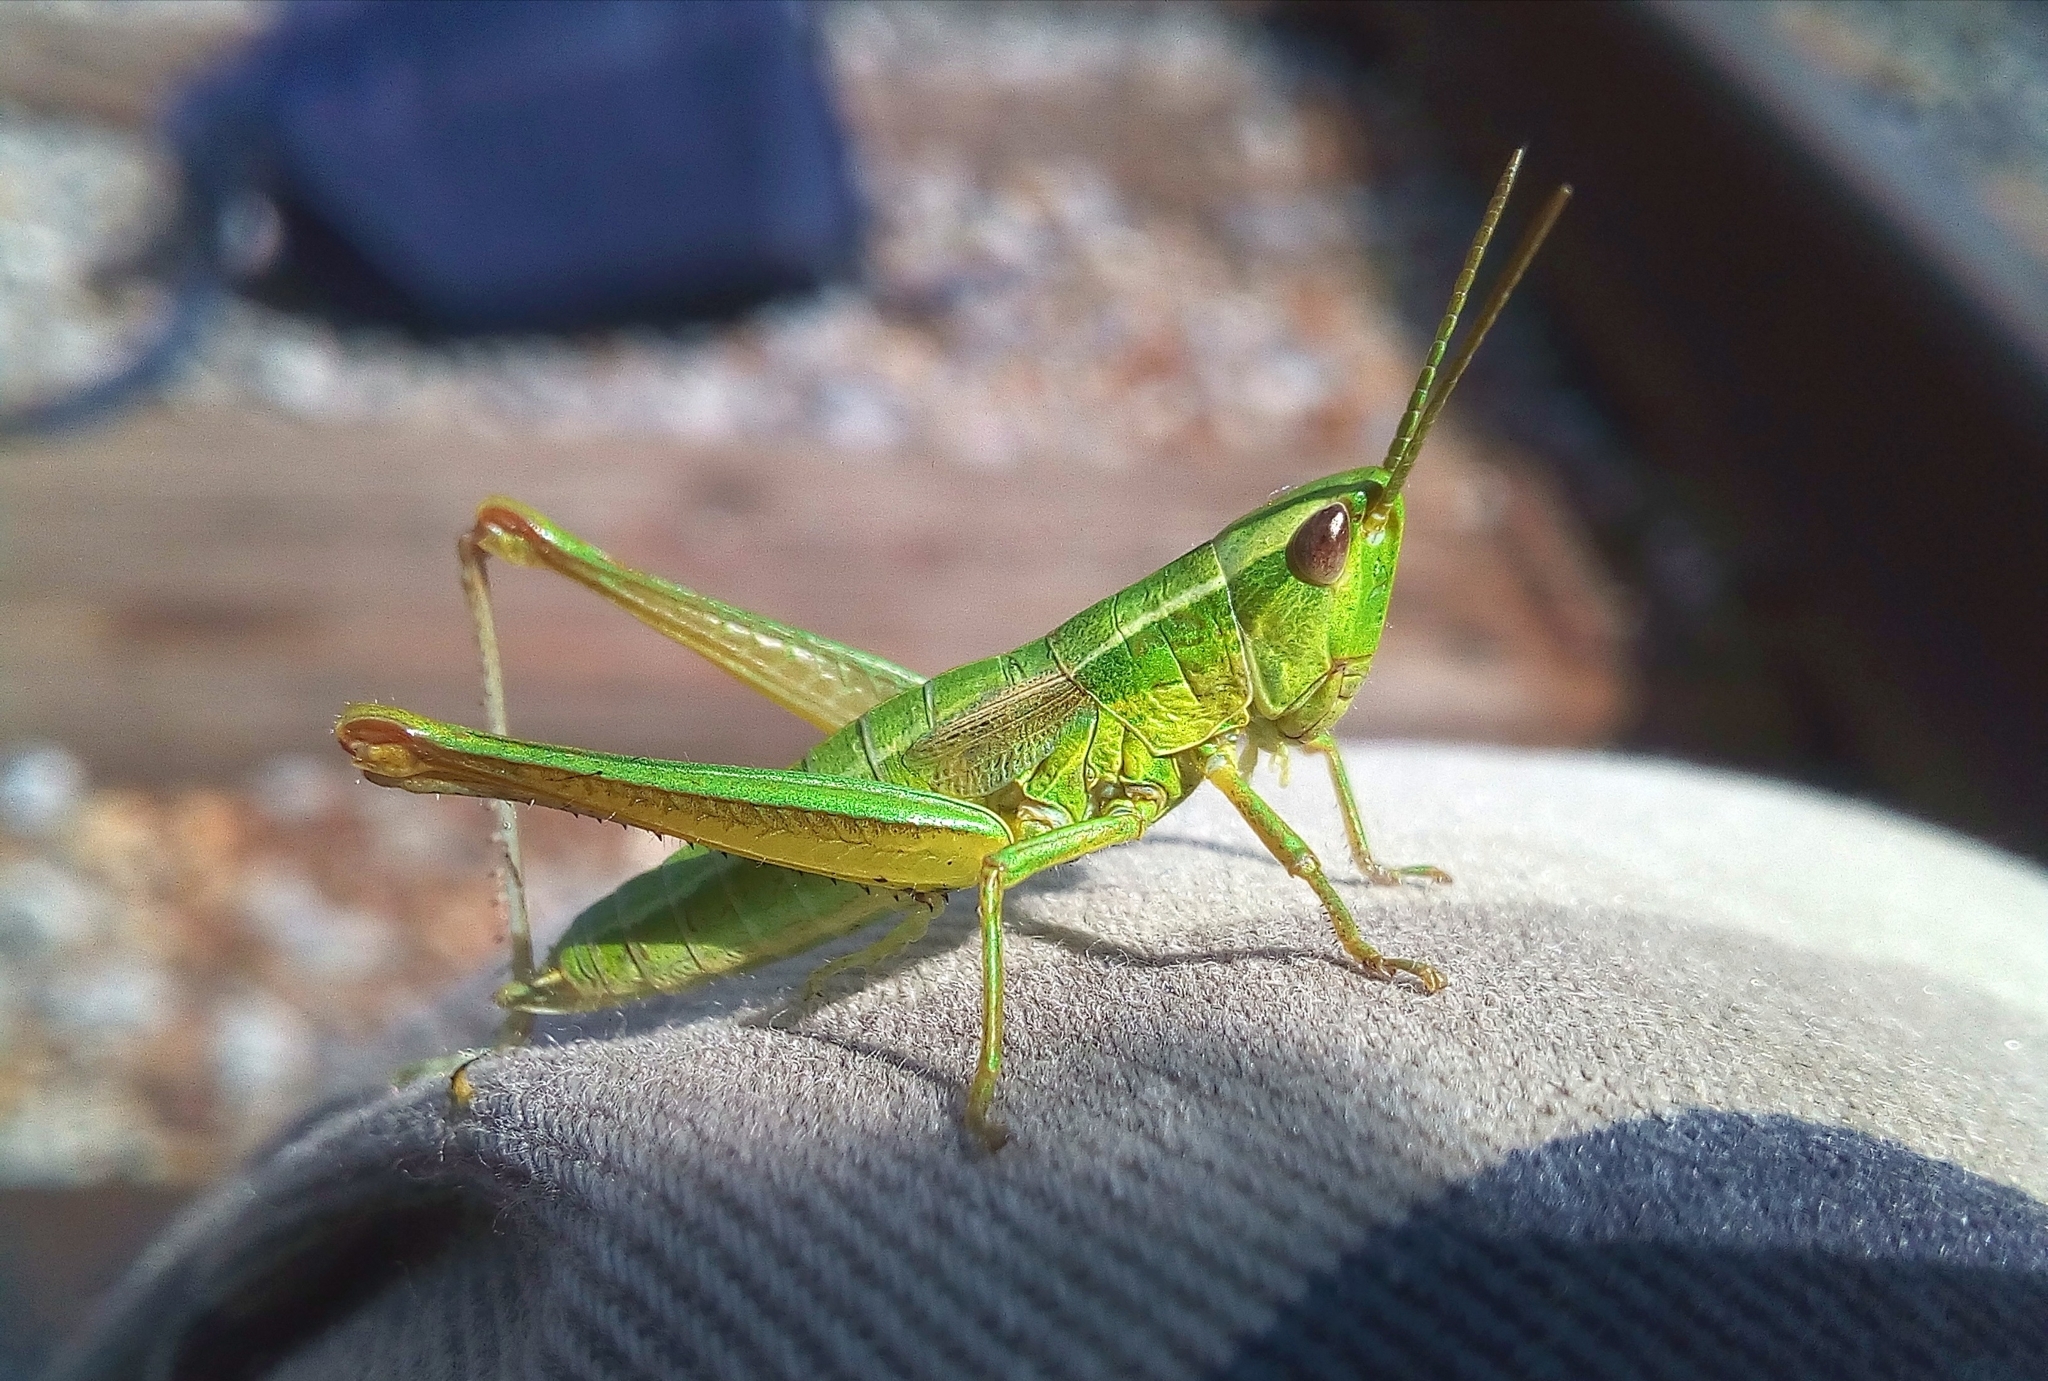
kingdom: Animalia
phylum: Arthropoda
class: Insecta
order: Orthoptera
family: Acrididae
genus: Euthystira
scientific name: Euthystira brachyptera
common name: Small gold grasshopper
